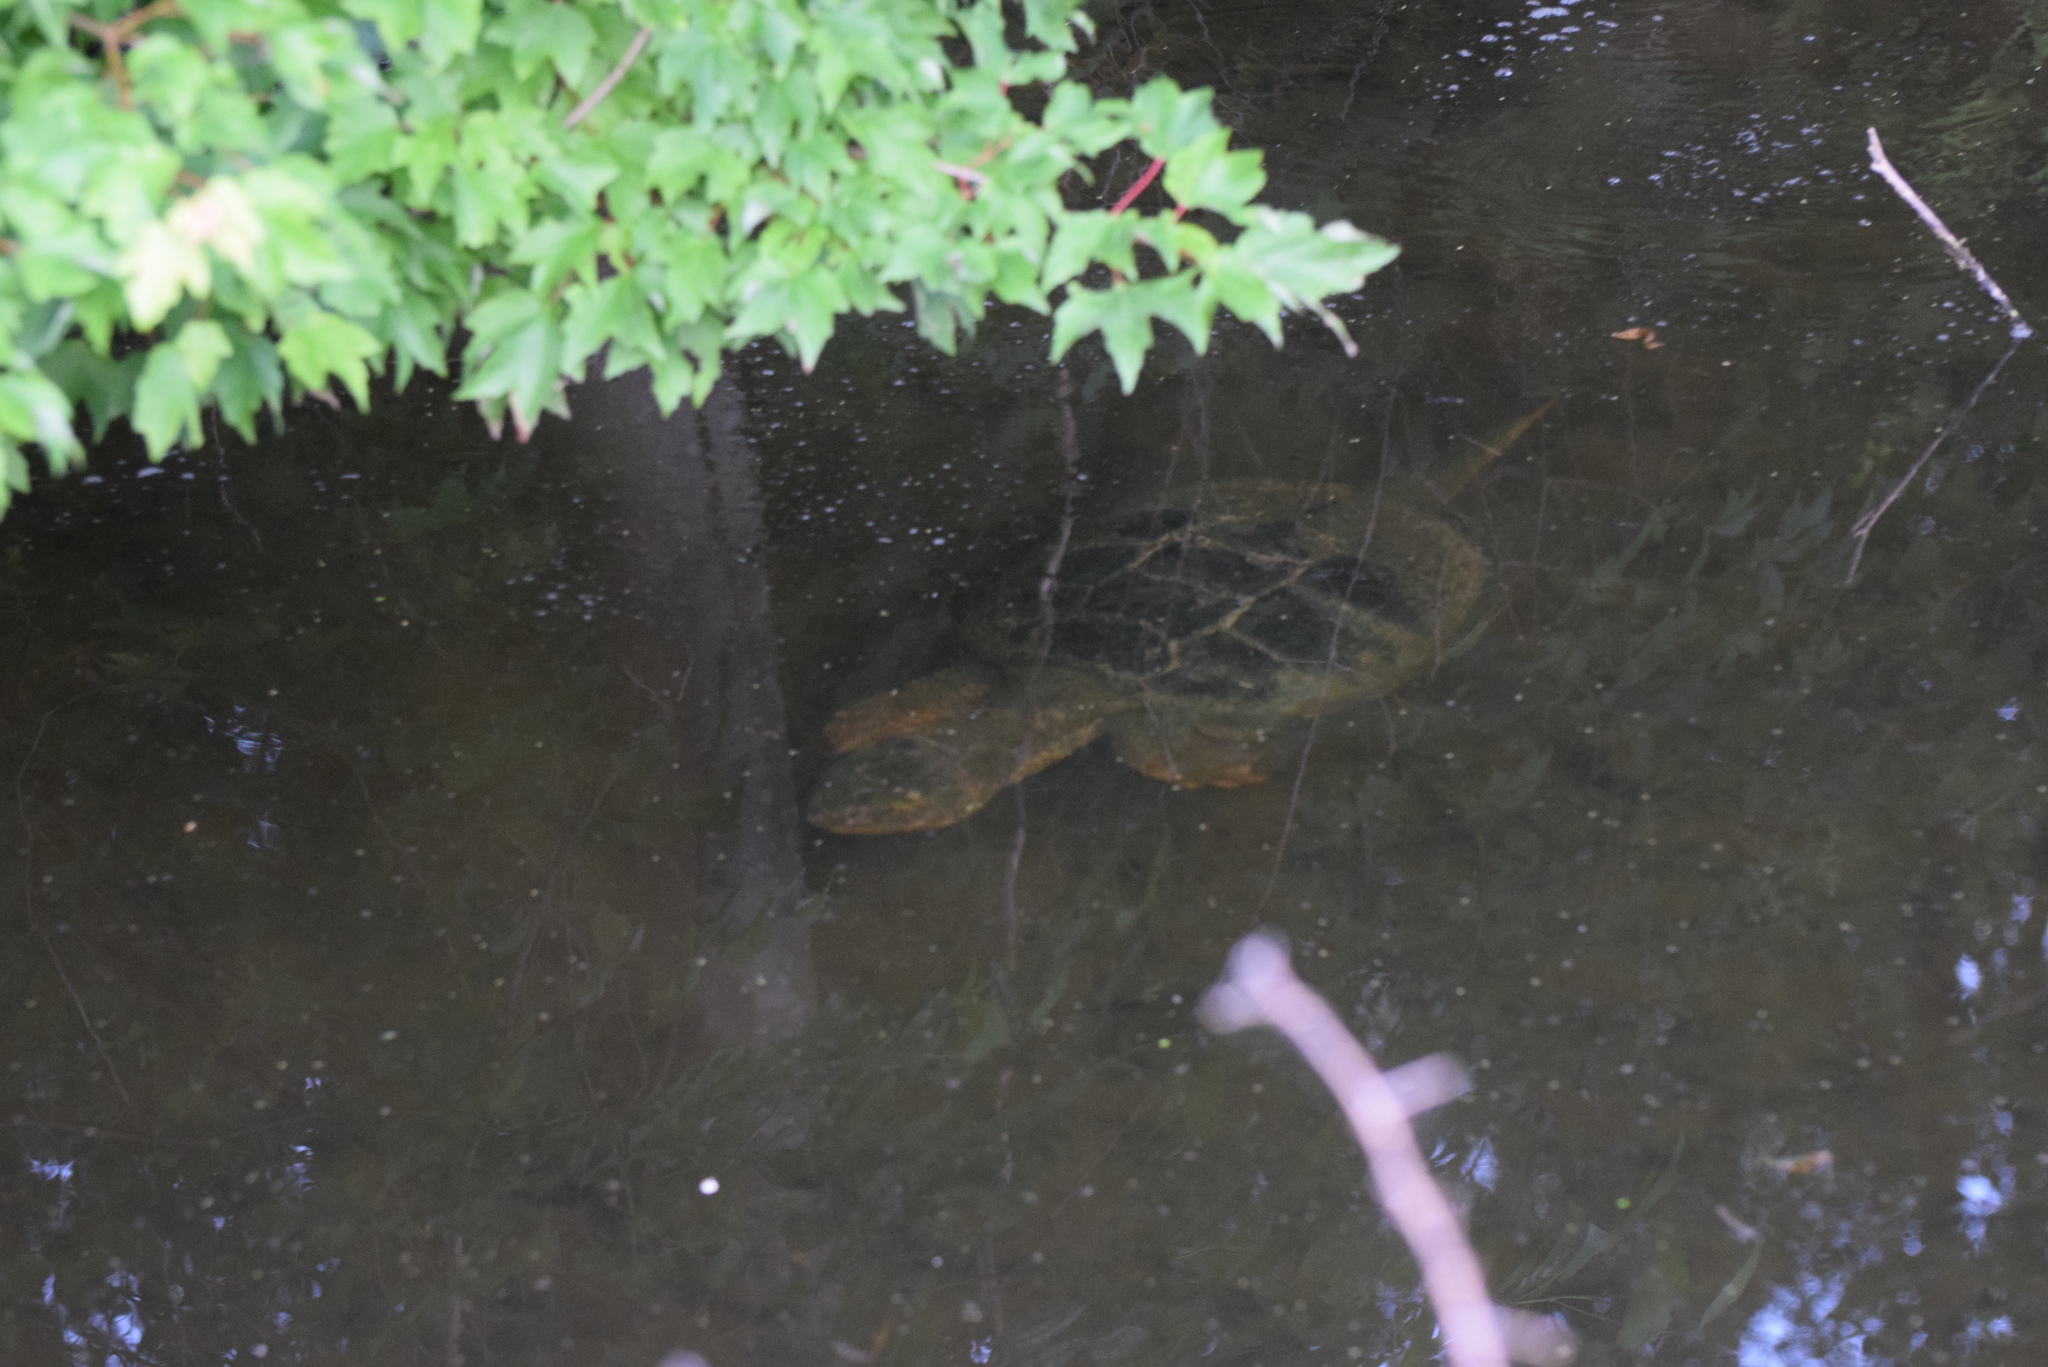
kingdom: Animalia
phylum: Chordata
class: Testudines
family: Chelydridae
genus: Chelydra
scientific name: Chelydra serpentina
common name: Common snapping turtle
